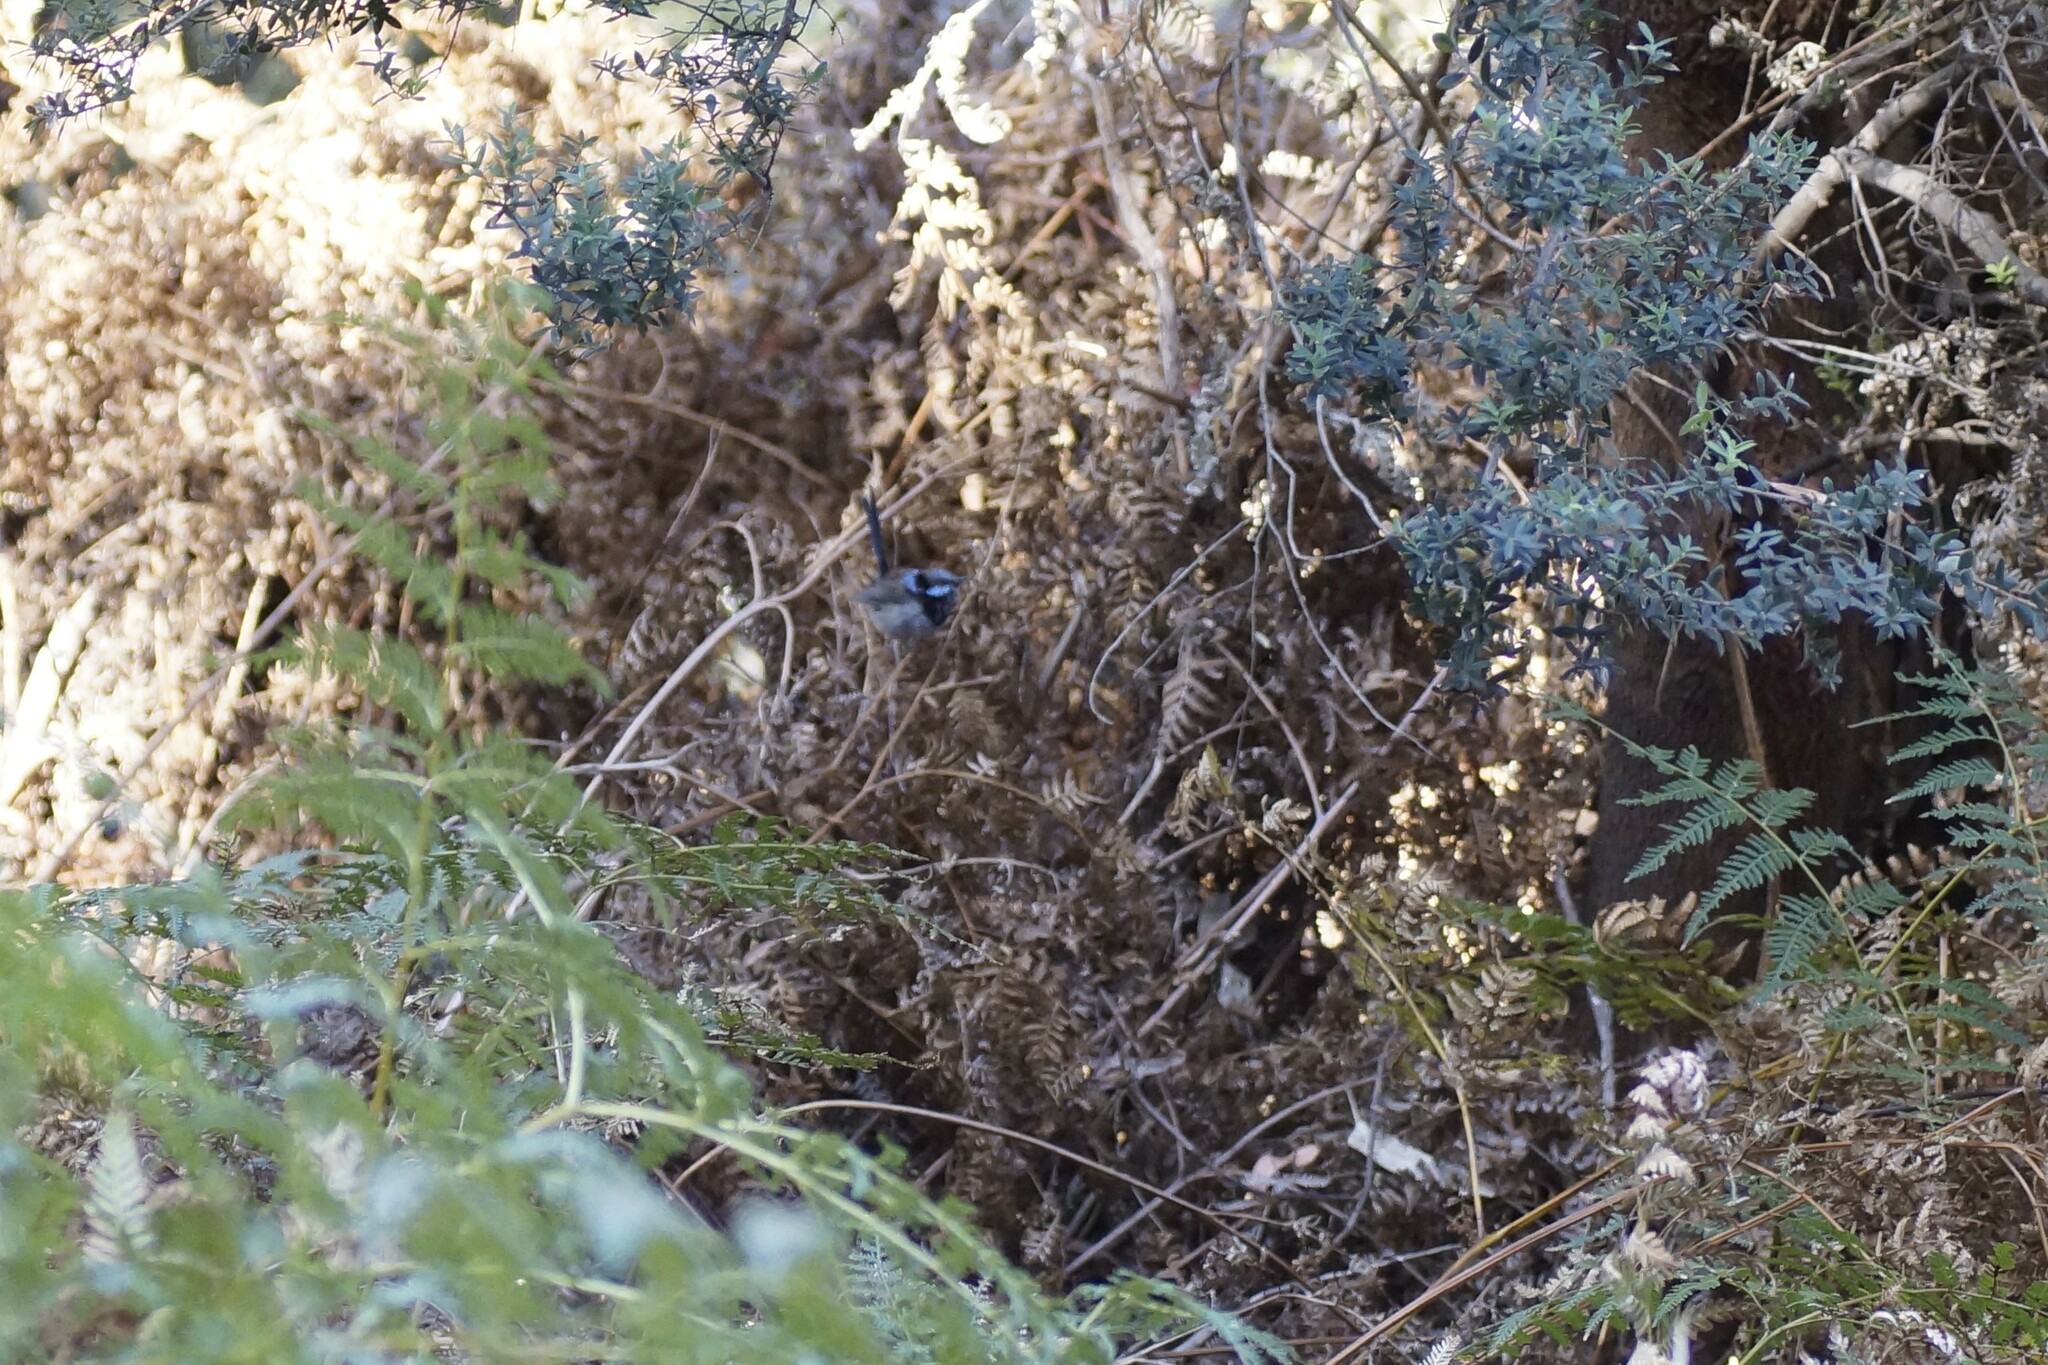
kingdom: Animalia
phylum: Chordata
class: Aves
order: Passeriformes
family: Maluridae
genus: Malurus
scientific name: Malurus cyaneus
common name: Superb fairywren
